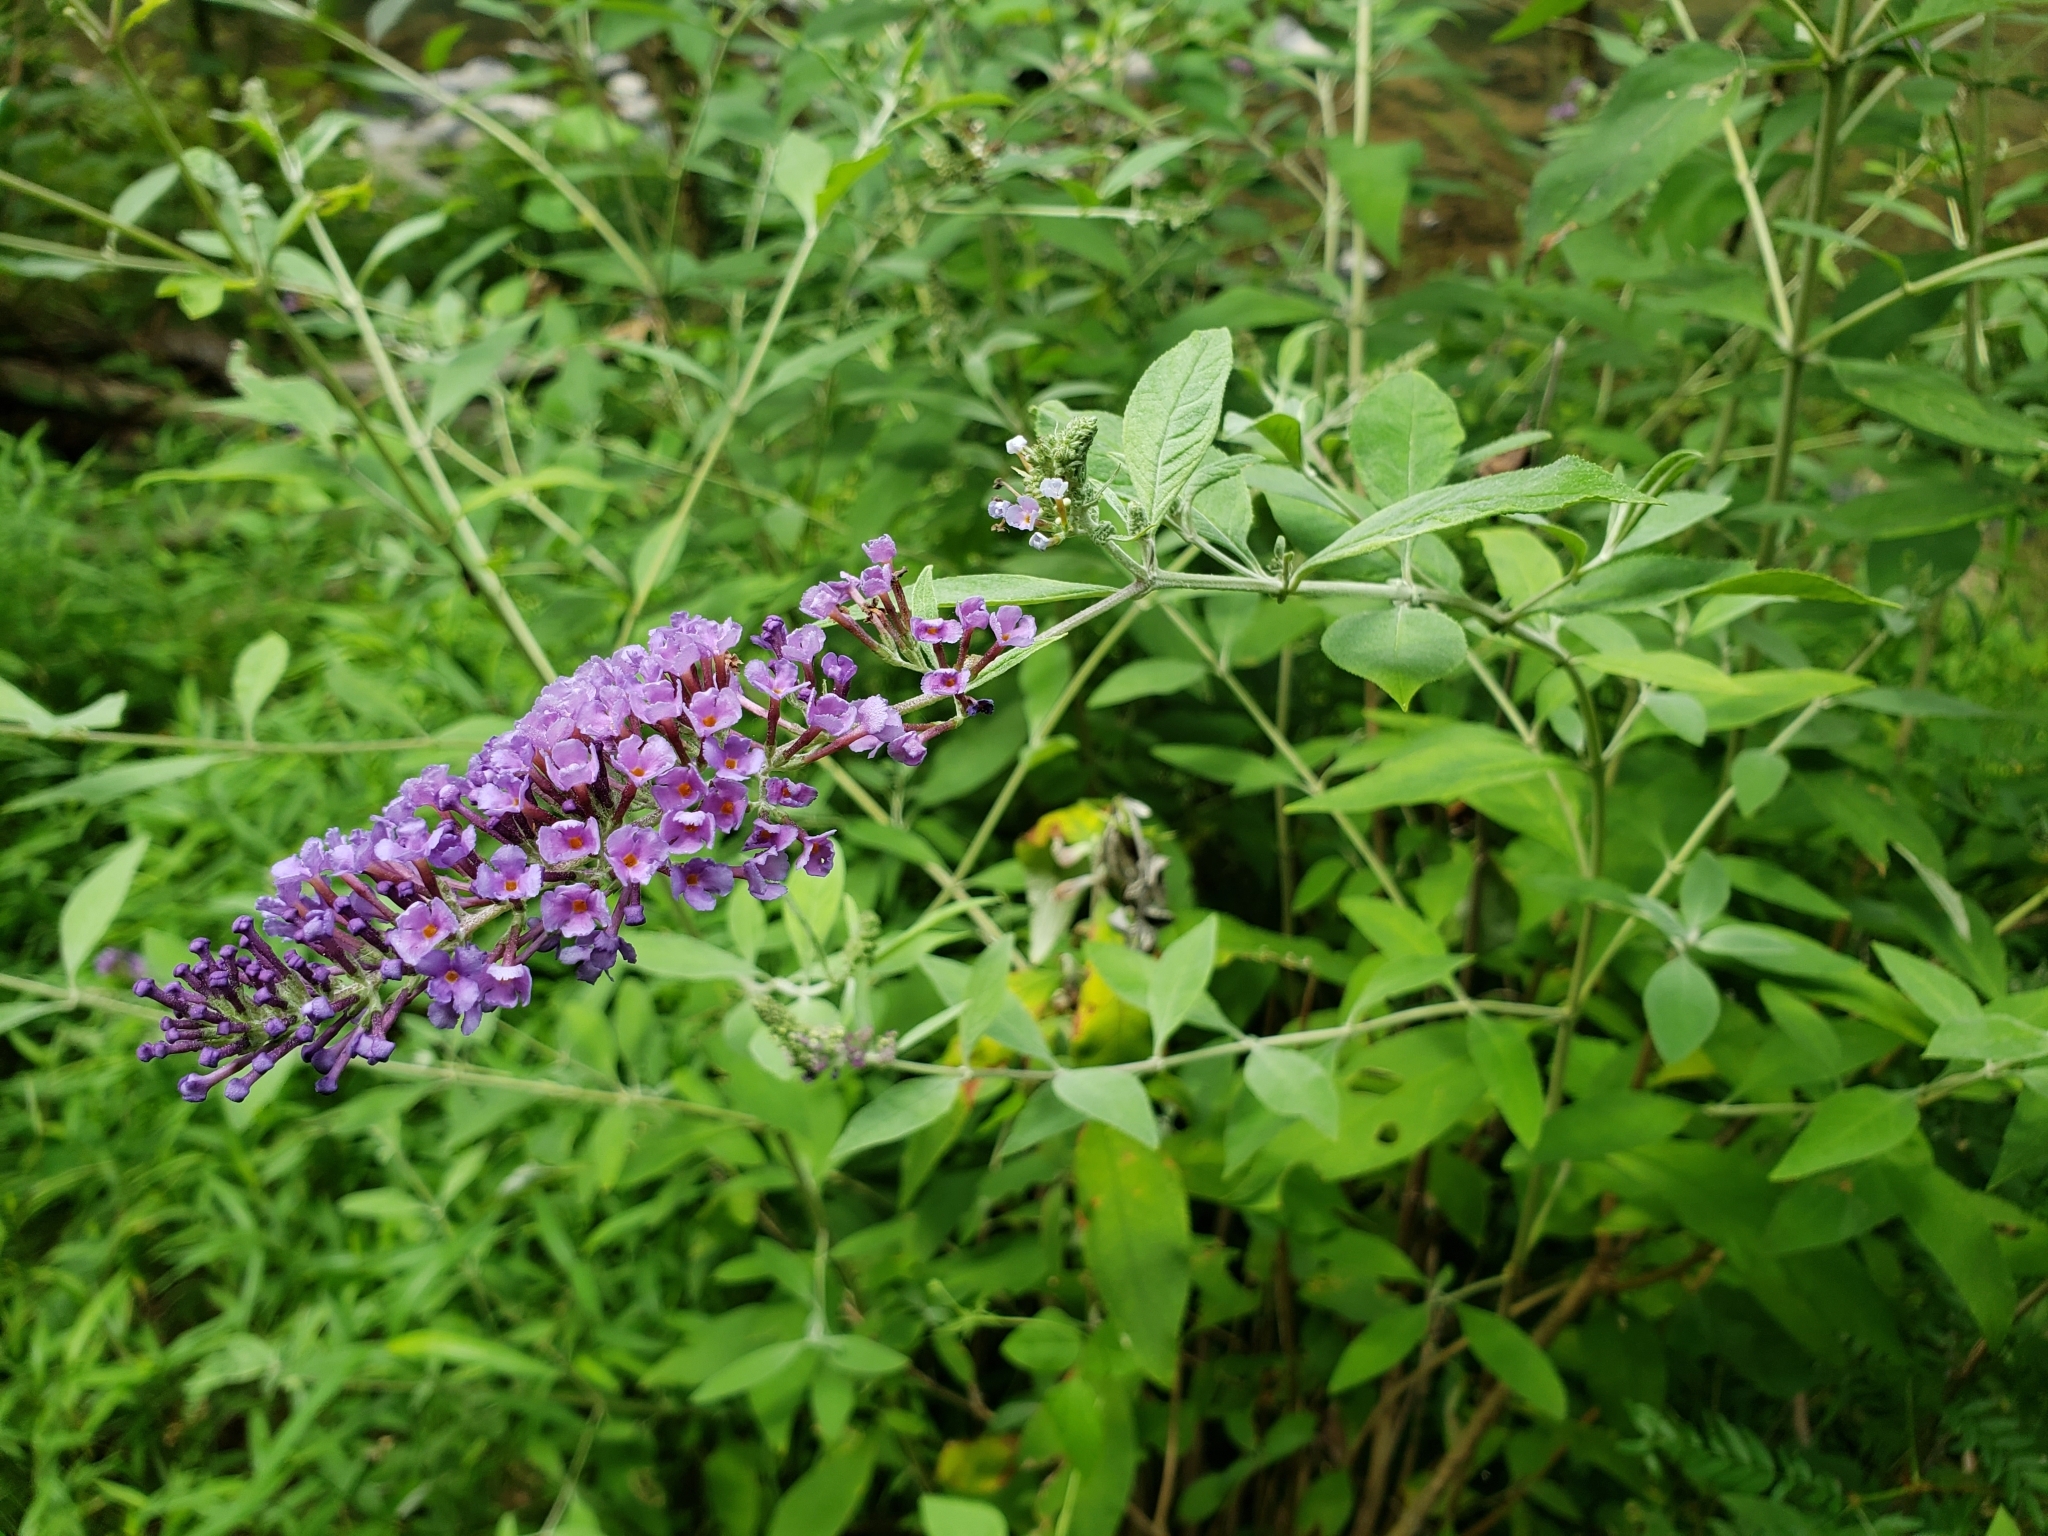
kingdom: Plantae
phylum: Tracheophyta
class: Magnoliopsida
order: Lamiales
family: Scrophulariaceae
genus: Buddleja
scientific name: Buddleja davidii
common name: Butterfly-bush
